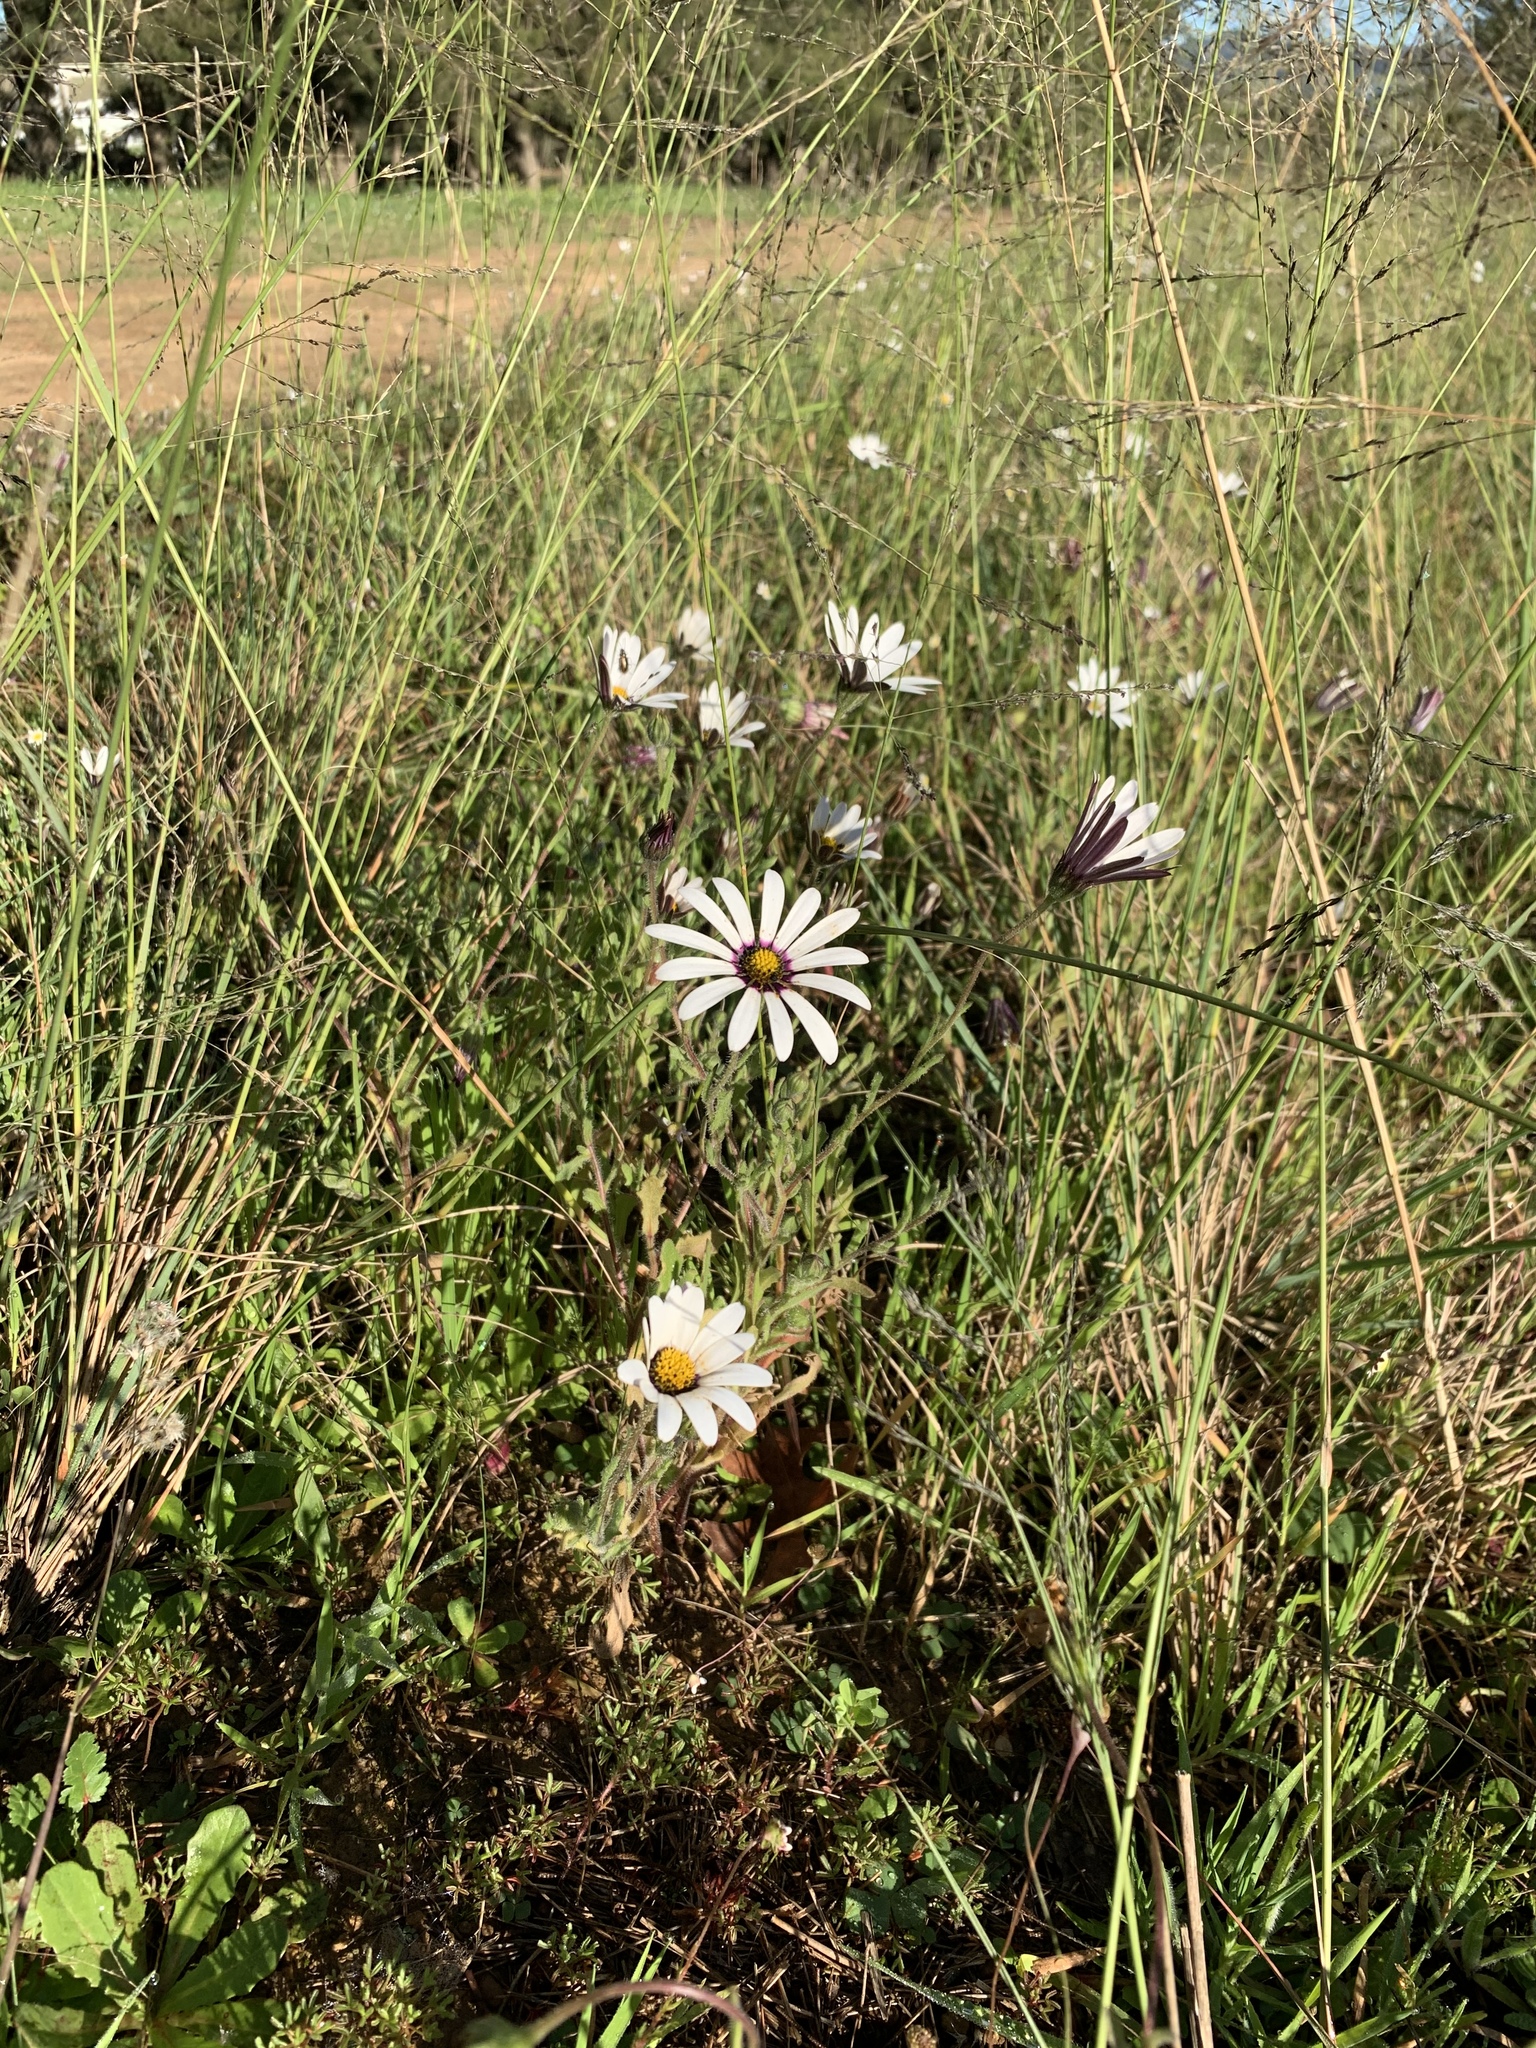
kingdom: Plantae
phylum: Tracheophyta
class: Magnoliopsida
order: Asterales
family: Asteraceae
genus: Dimorphotheca
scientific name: Dimorphotheca pluvialis
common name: Weather prophet
